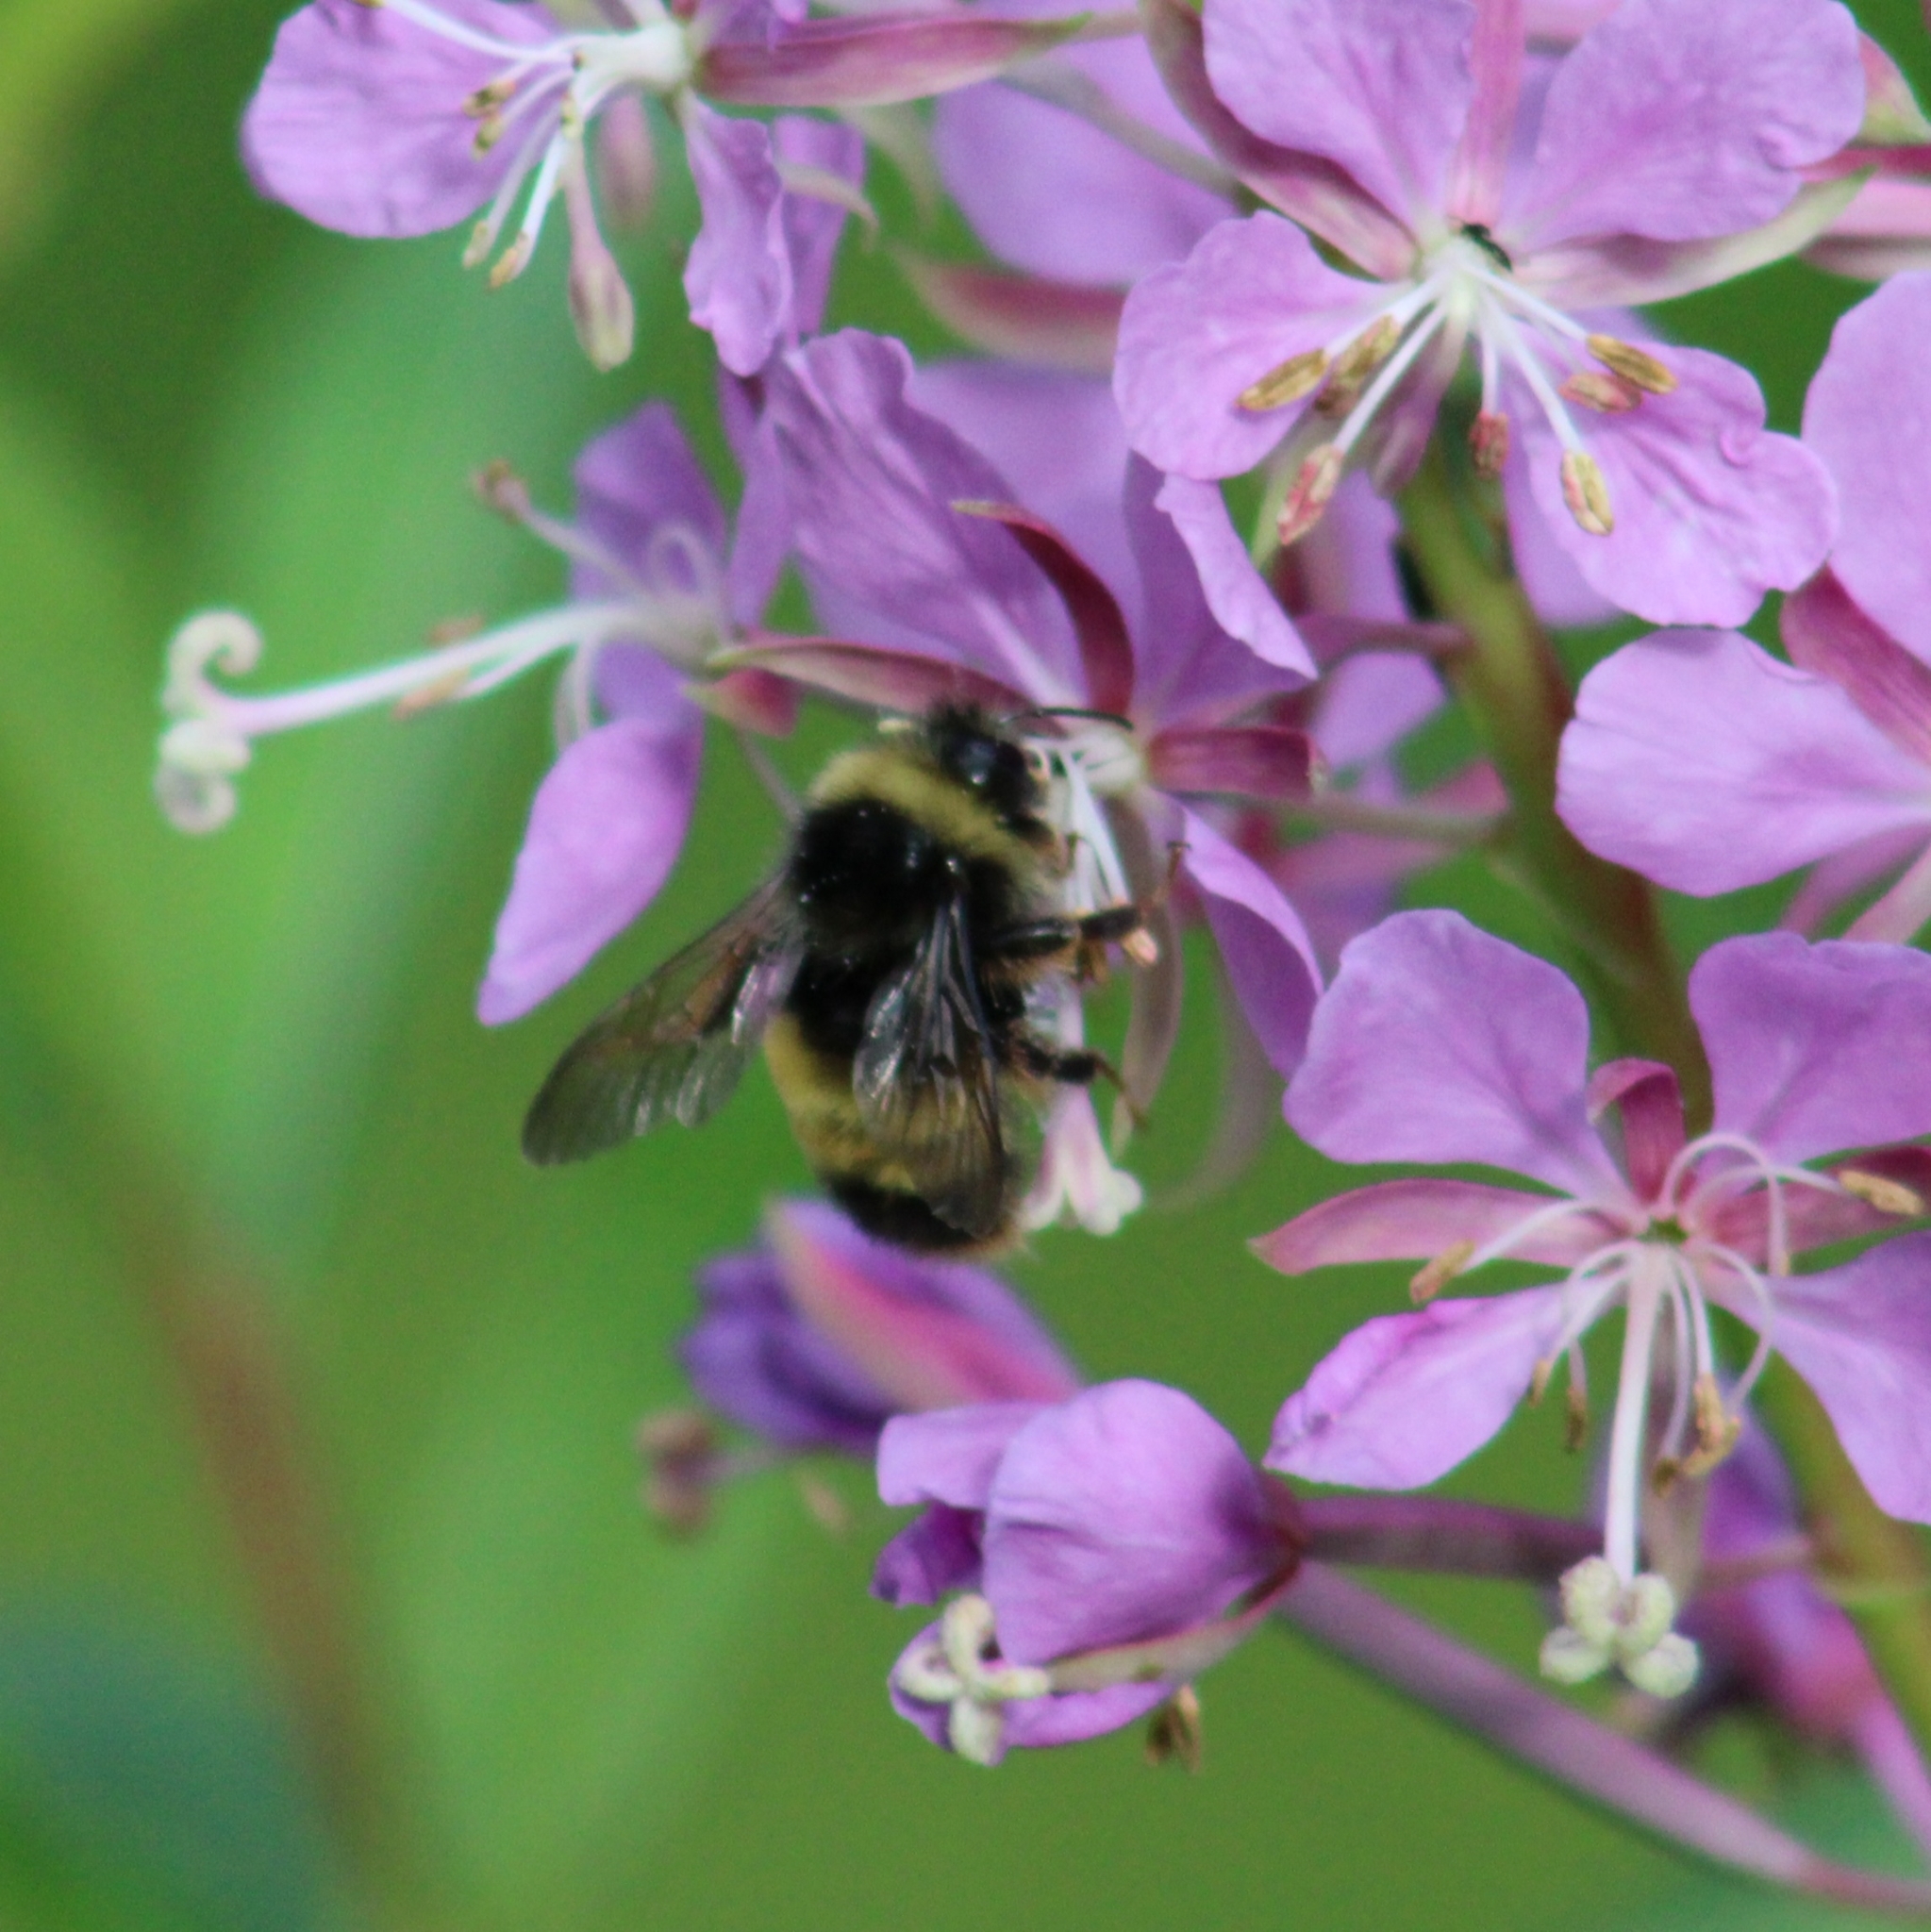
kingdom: Animalia
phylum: Arthropoda
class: Insecta
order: Hymenoptera
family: Apidae
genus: Bombus
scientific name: Bombus terricola
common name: Yellow-banded bumble bee
